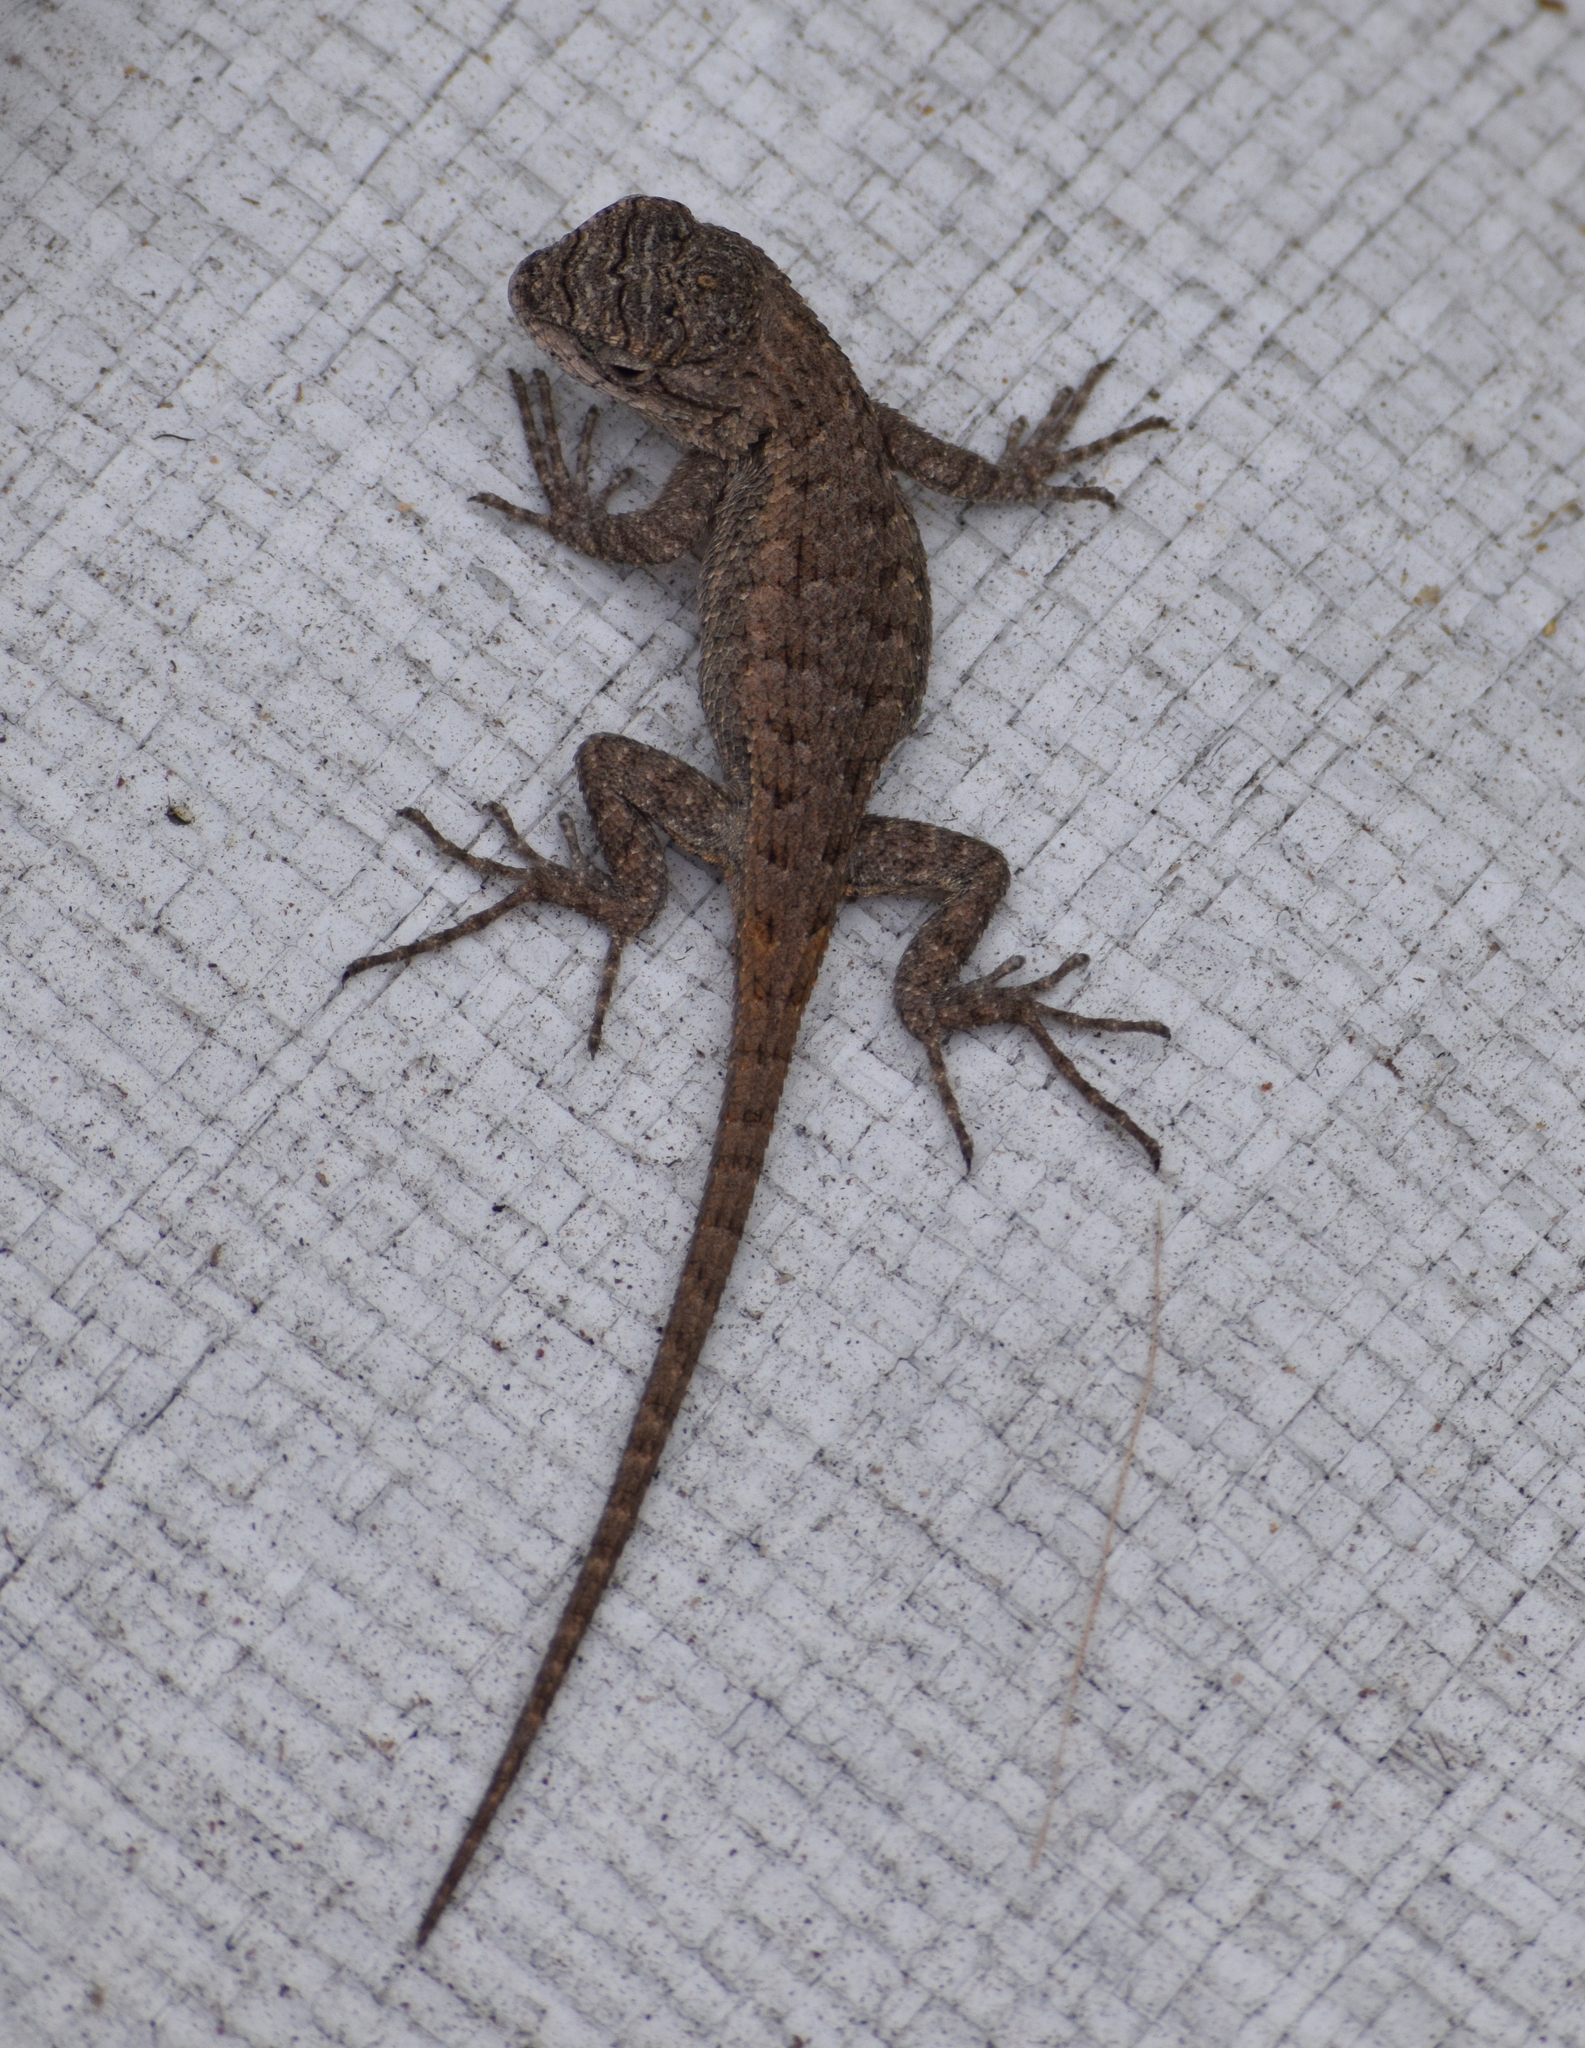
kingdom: Animalia
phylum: Chordata
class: Squamata
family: Phrynosomatidae
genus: Sceloporus
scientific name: Sceloporus occidentalis
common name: Western fence lizard
